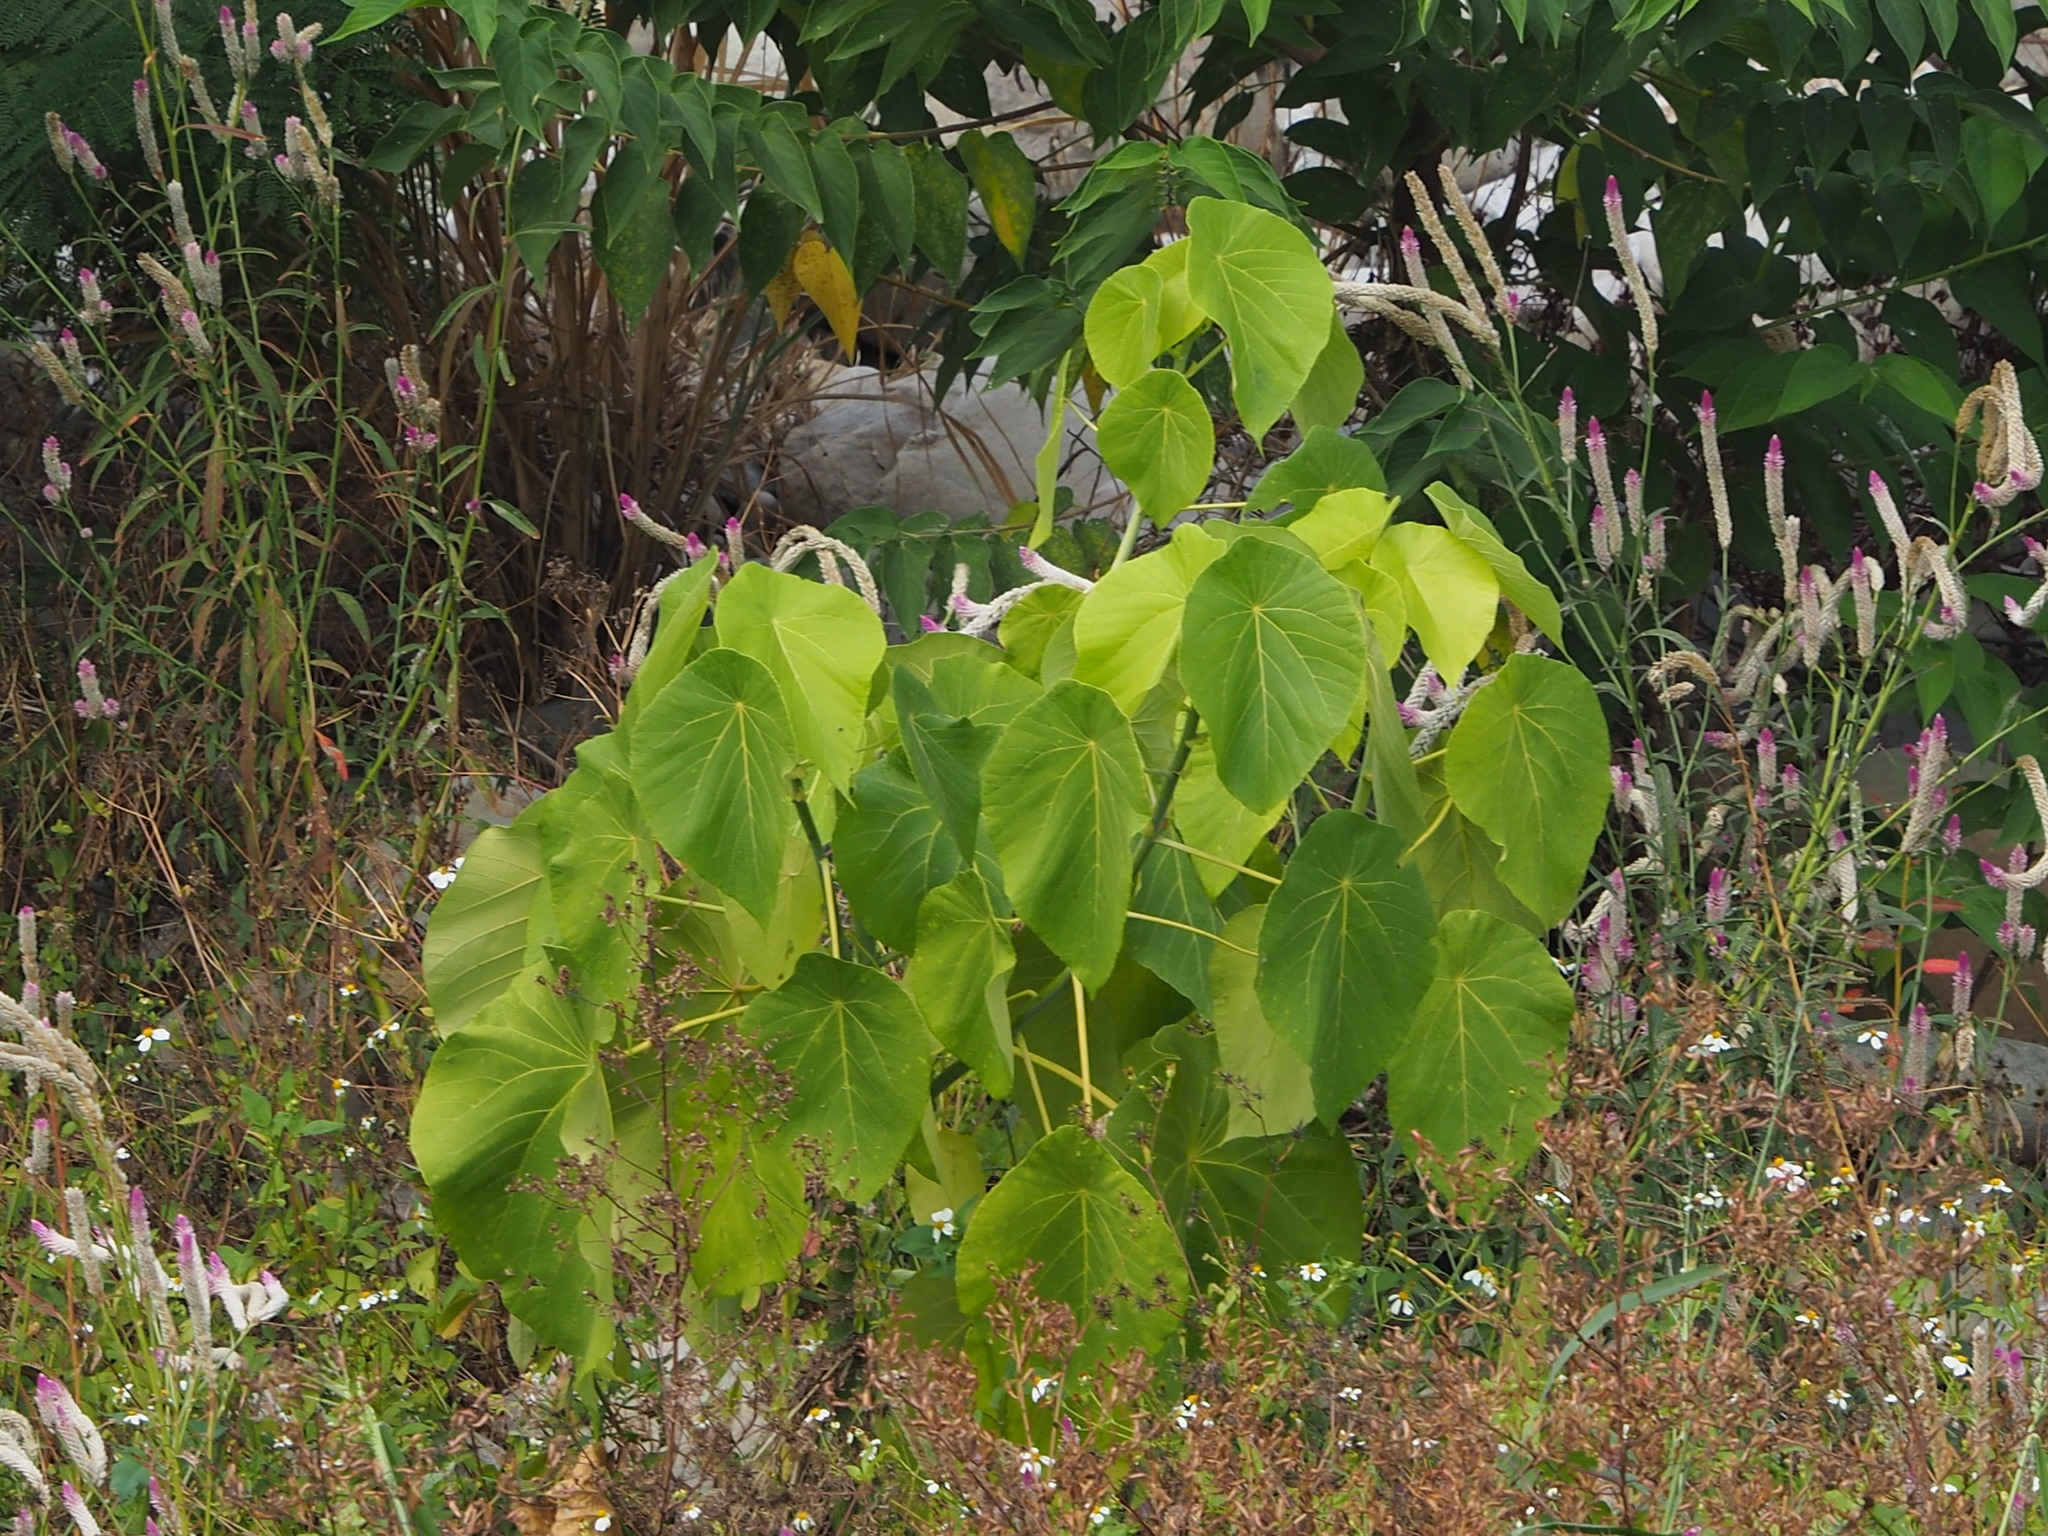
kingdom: Plantae
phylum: Tracheophyta
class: Magnoliopsida
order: Malpighiales
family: Euphorbiaceae
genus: Macaranga
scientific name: Macaranga tanarius
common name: Parasol leaf tree
